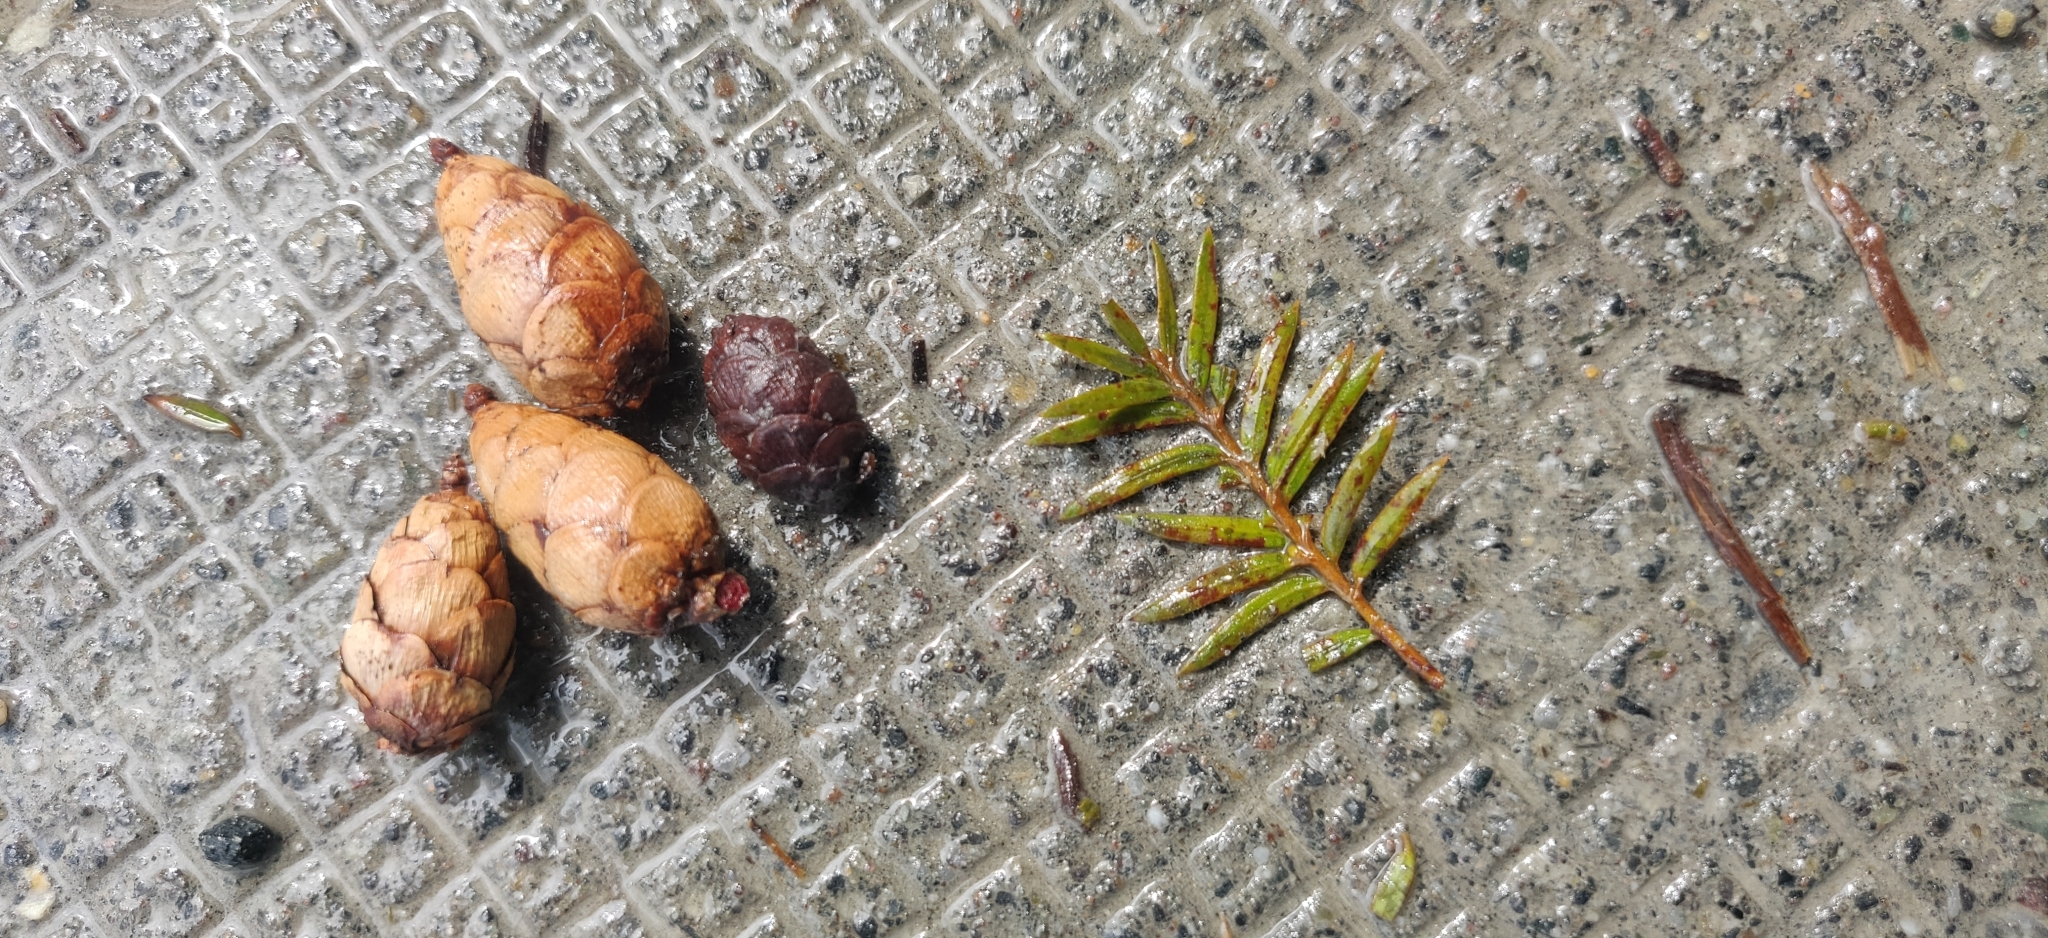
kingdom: Plantae
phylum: Tracheophyta
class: Pinopsida
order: Pinales
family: Pinaceae
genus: Tsuga
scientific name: Tsuga dumosa
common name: Himalayan hemlock
